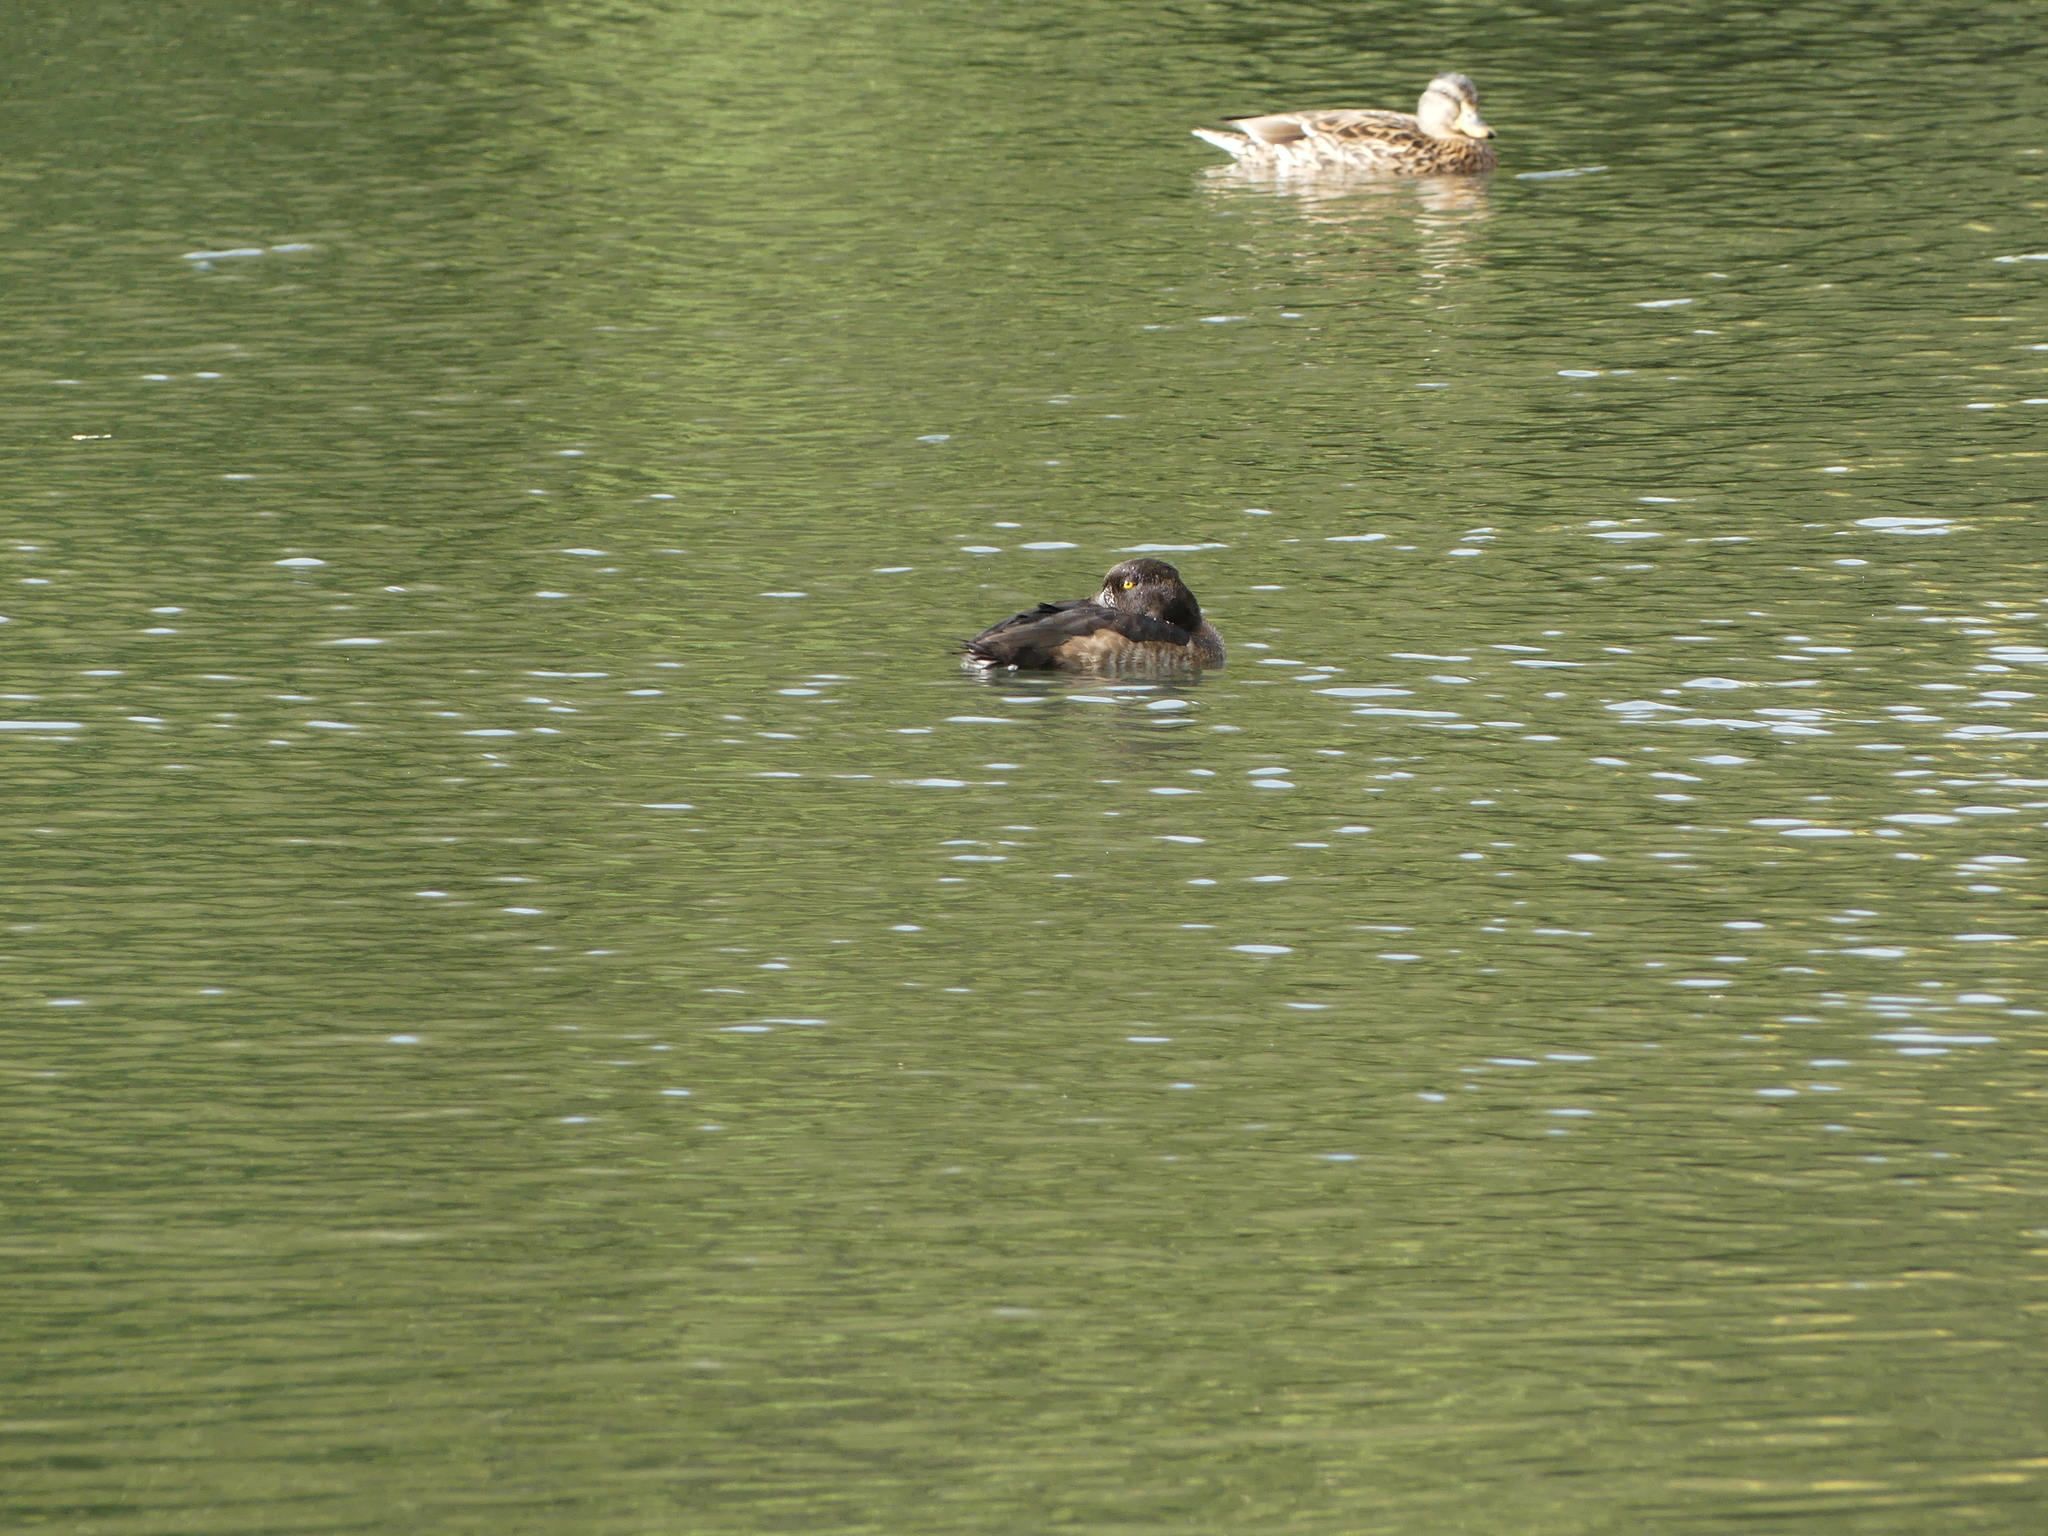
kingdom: Animalia
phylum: Chordata
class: Aves
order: Anseriformes
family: Anatidae
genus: Aythya
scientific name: Aythya fuligula
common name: Tufted duck
